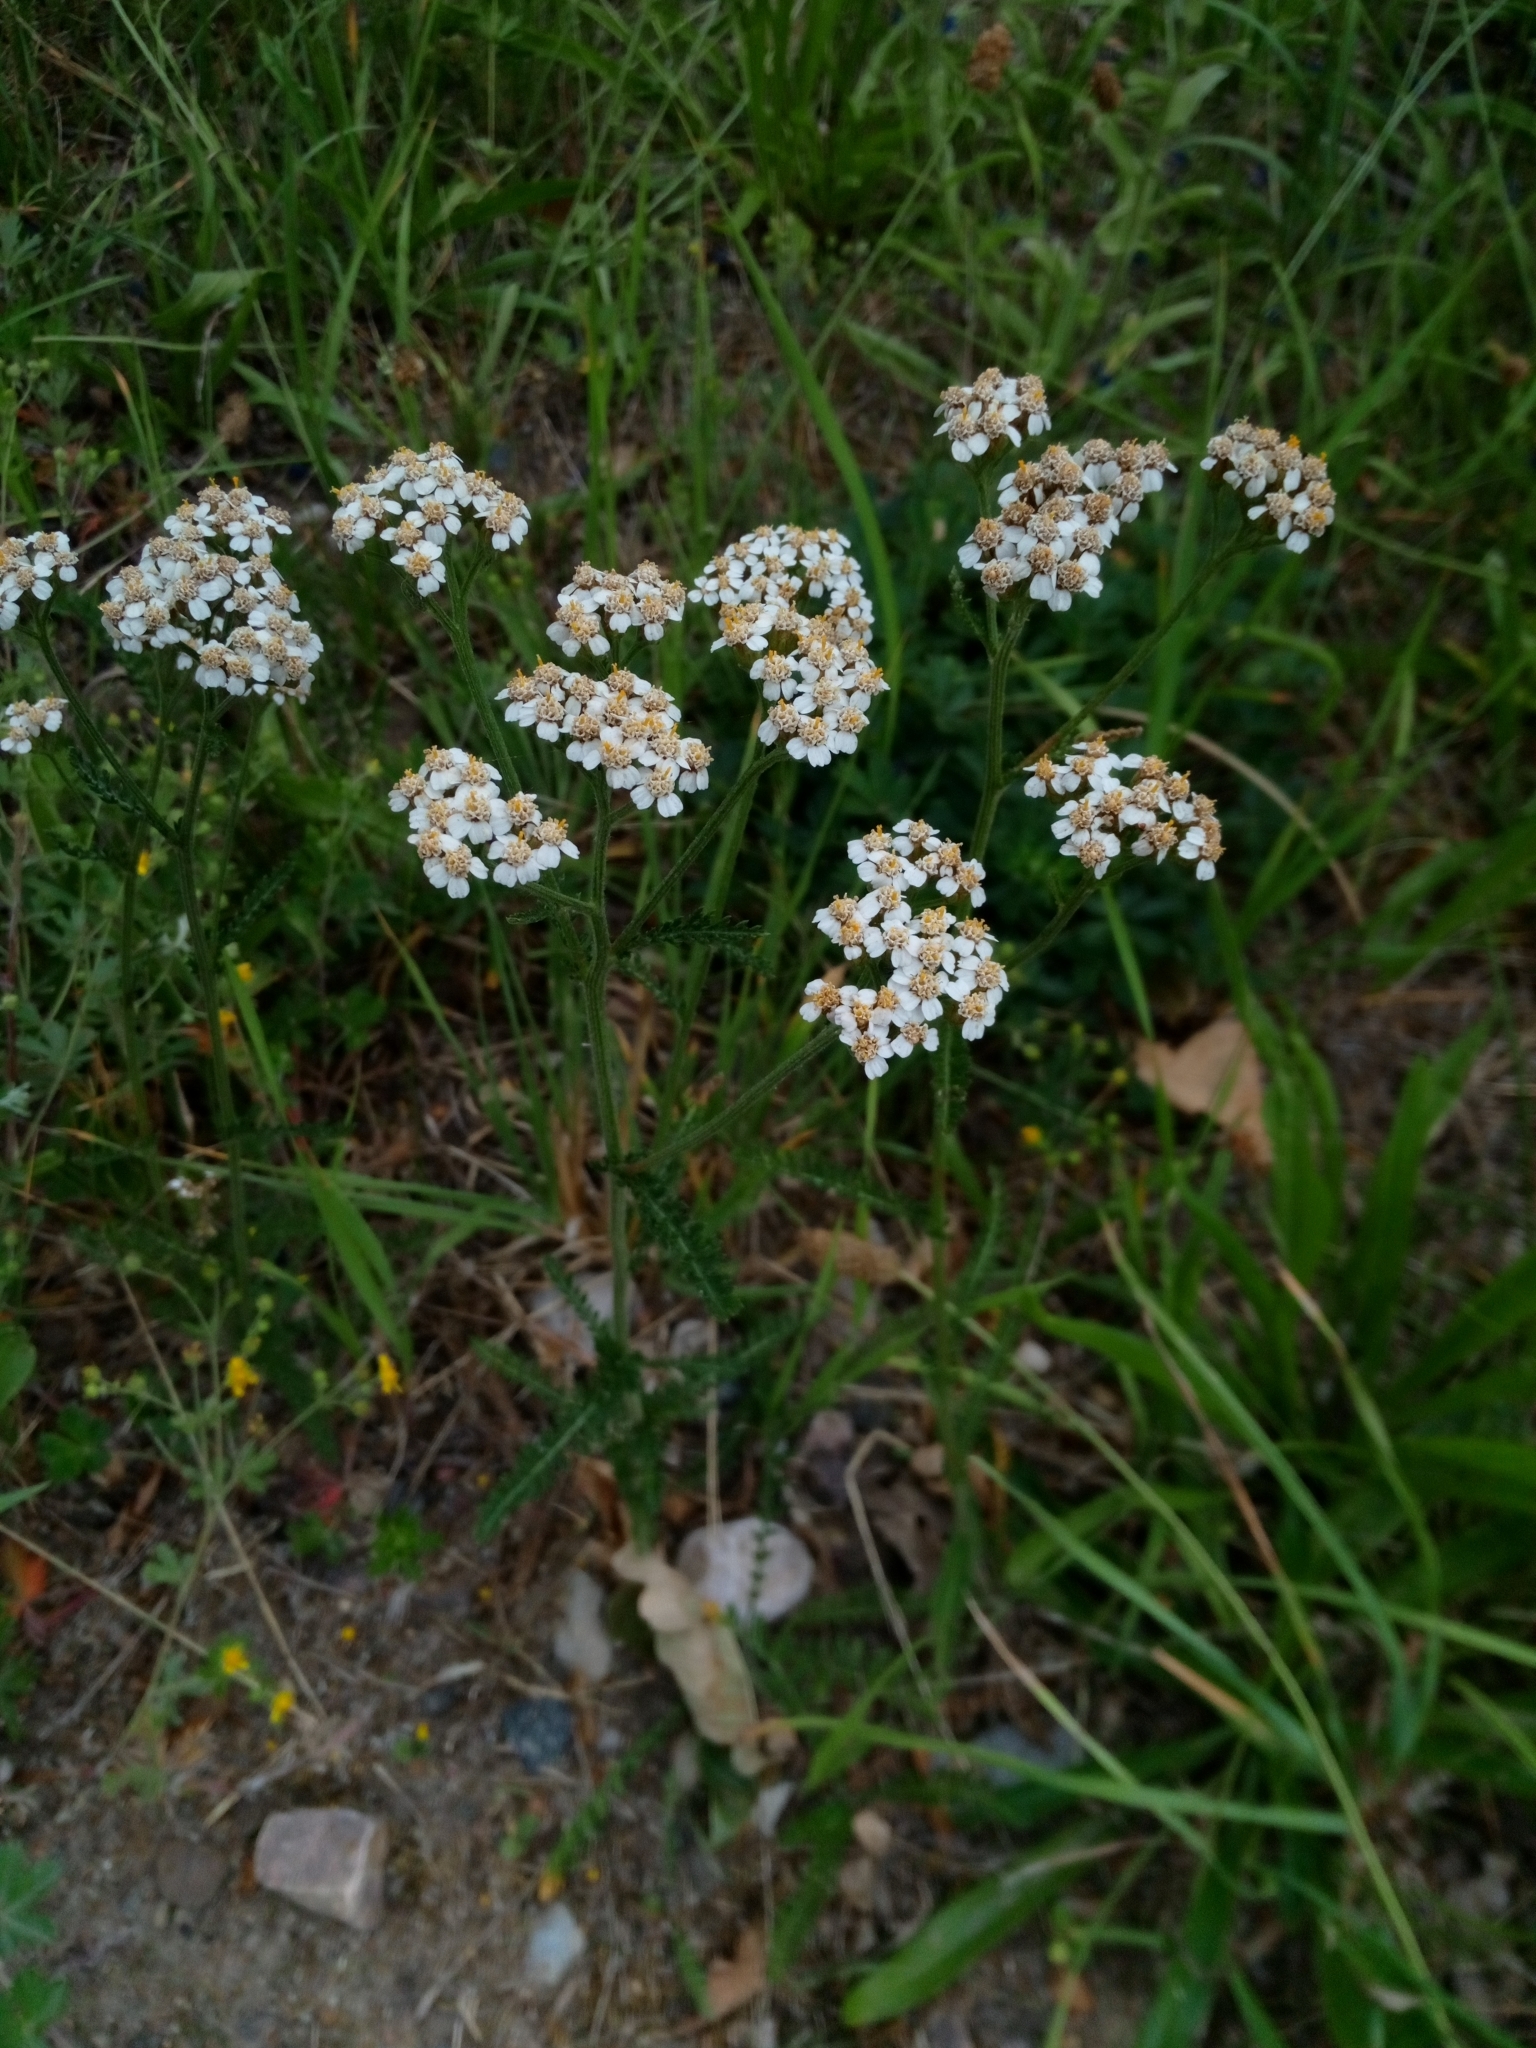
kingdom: Plantae
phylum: Tracheophyta
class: Magnoliopsida
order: Asterales
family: Asteraceae
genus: Achillea
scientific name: Achillea millefolium
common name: Yarrow
